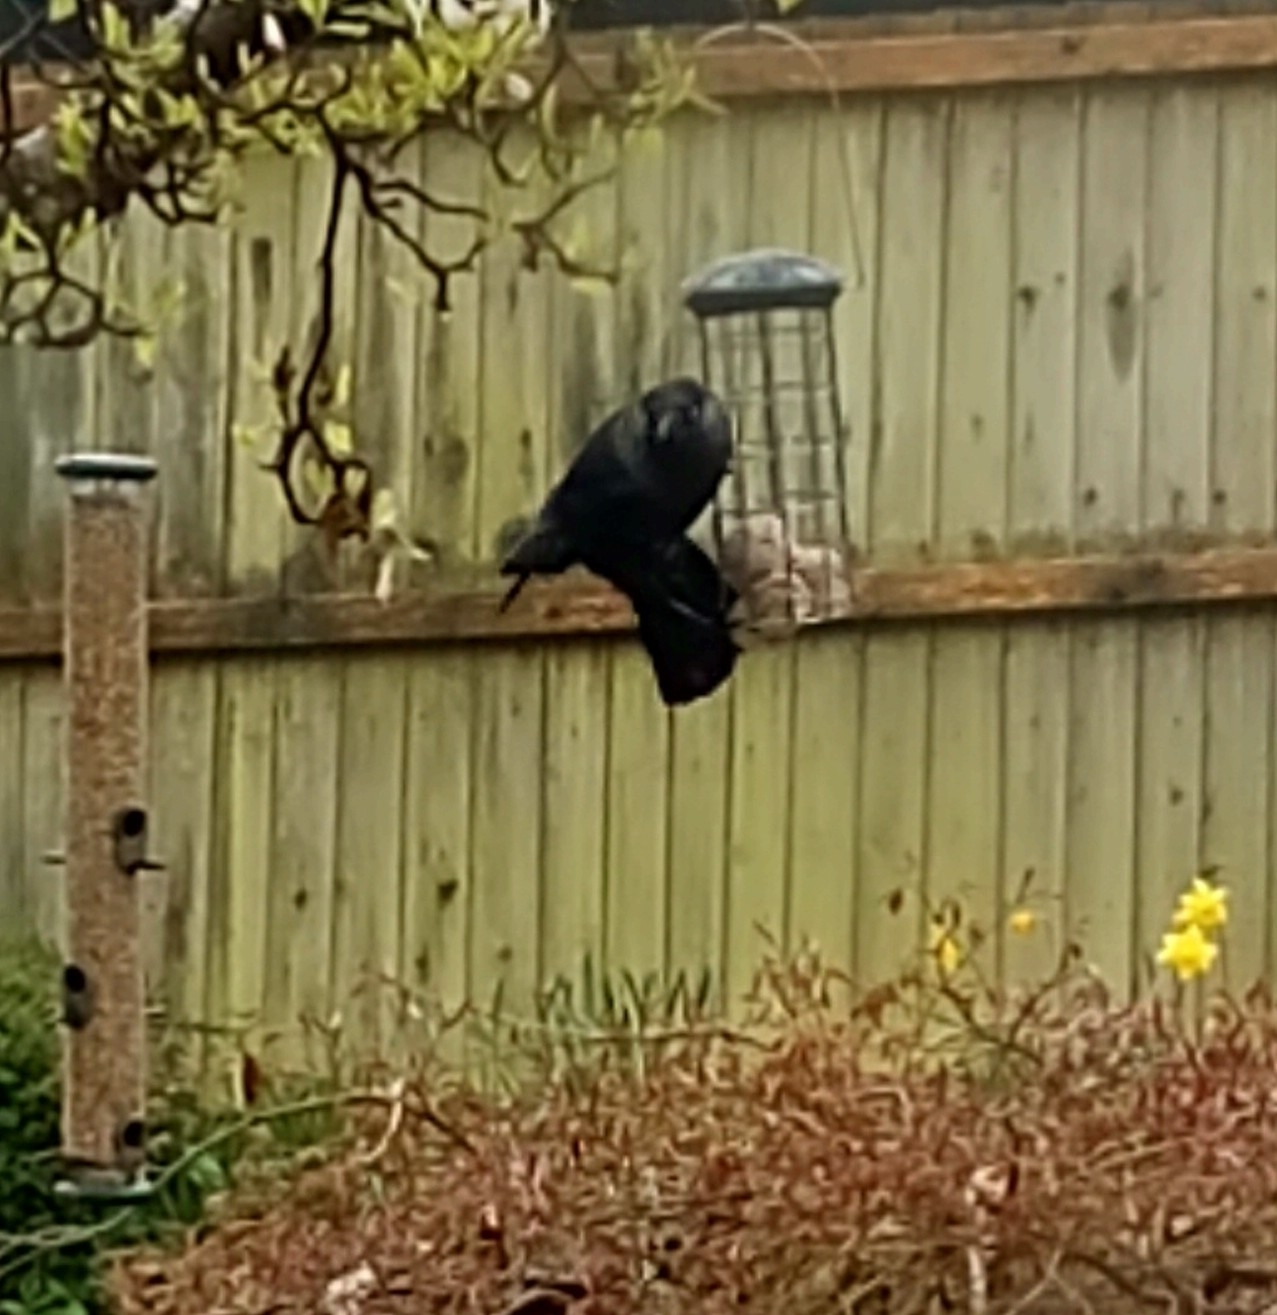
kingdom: Animalia
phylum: Chordata
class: Aves
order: Passeriformes
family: Corvidae
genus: Coloeus
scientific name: Coloeus monedula
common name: Western jackdaw
